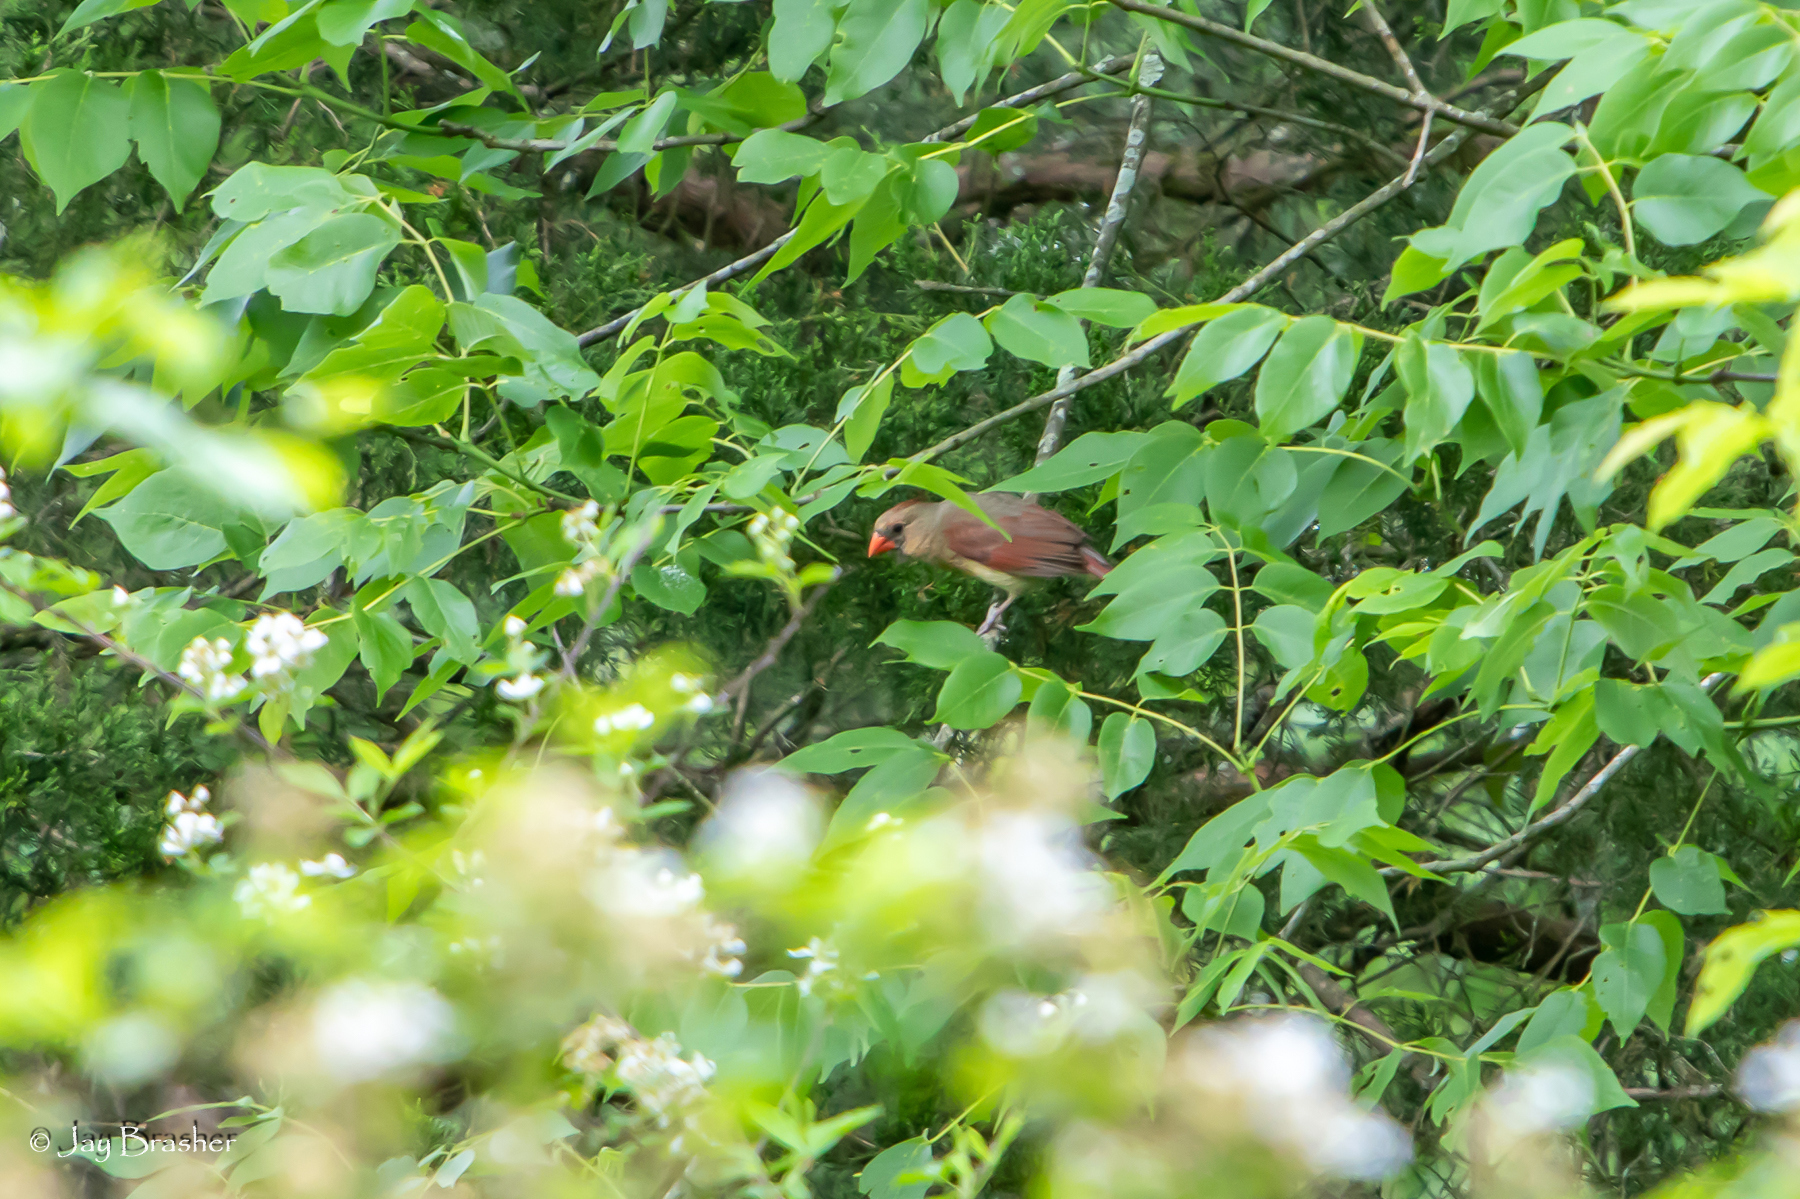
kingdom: Animalia
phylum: Chordata
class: Aves
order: Passeriformes
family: Cardinalidae
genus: Cardinalis
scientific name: Cardinalis cardinalis
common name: Northern cardinal
